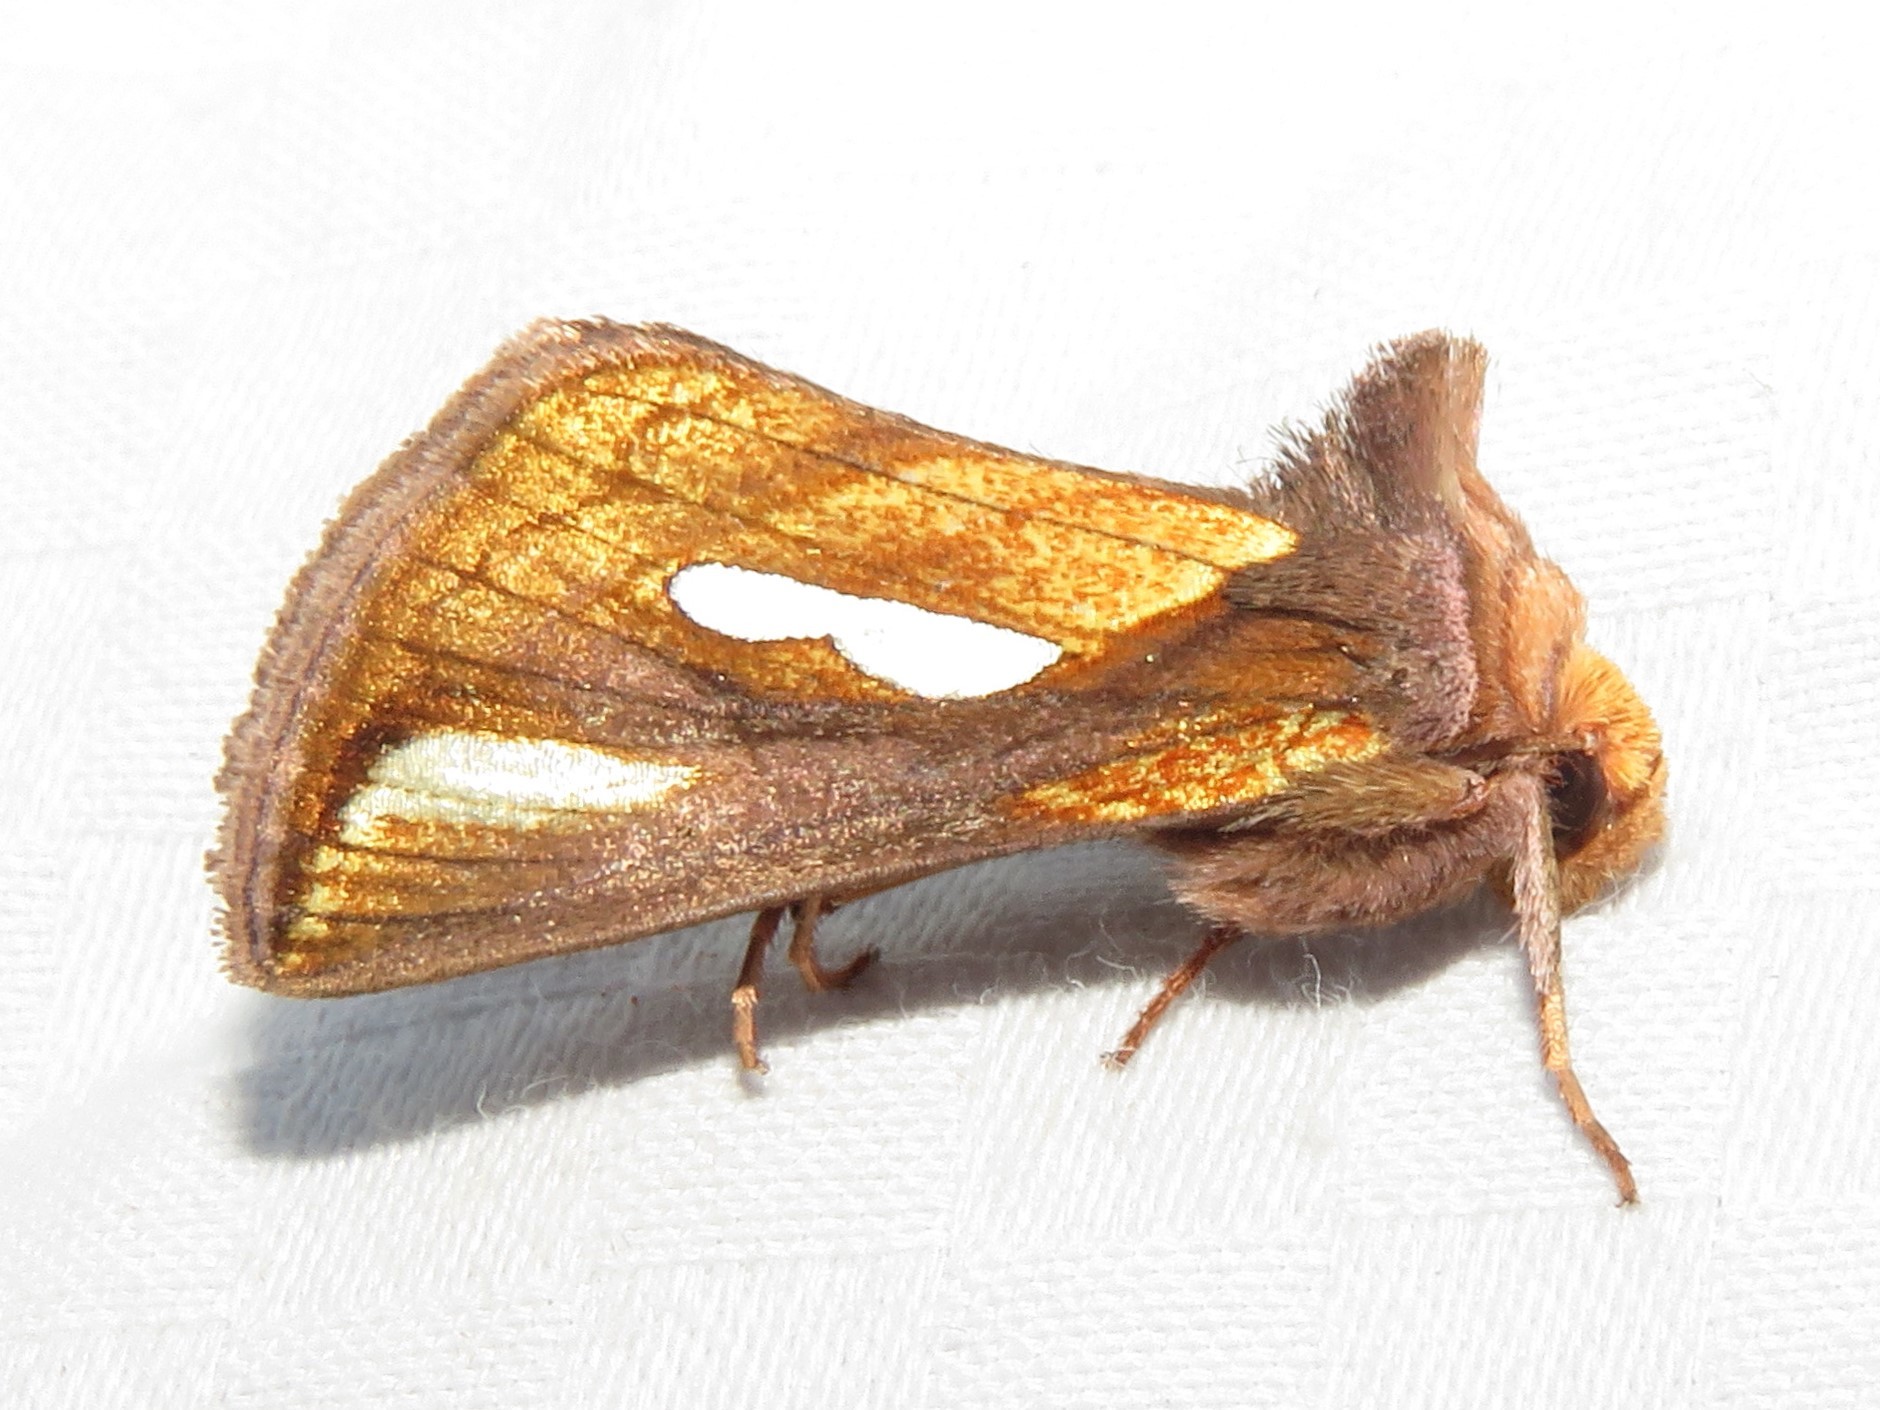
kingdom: Animalia
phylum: Arthropoda
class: Insecta
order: Lepidoptera
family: Noctuidae
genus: Plusia
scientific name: Plusia contexta
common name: Connected looper moth
